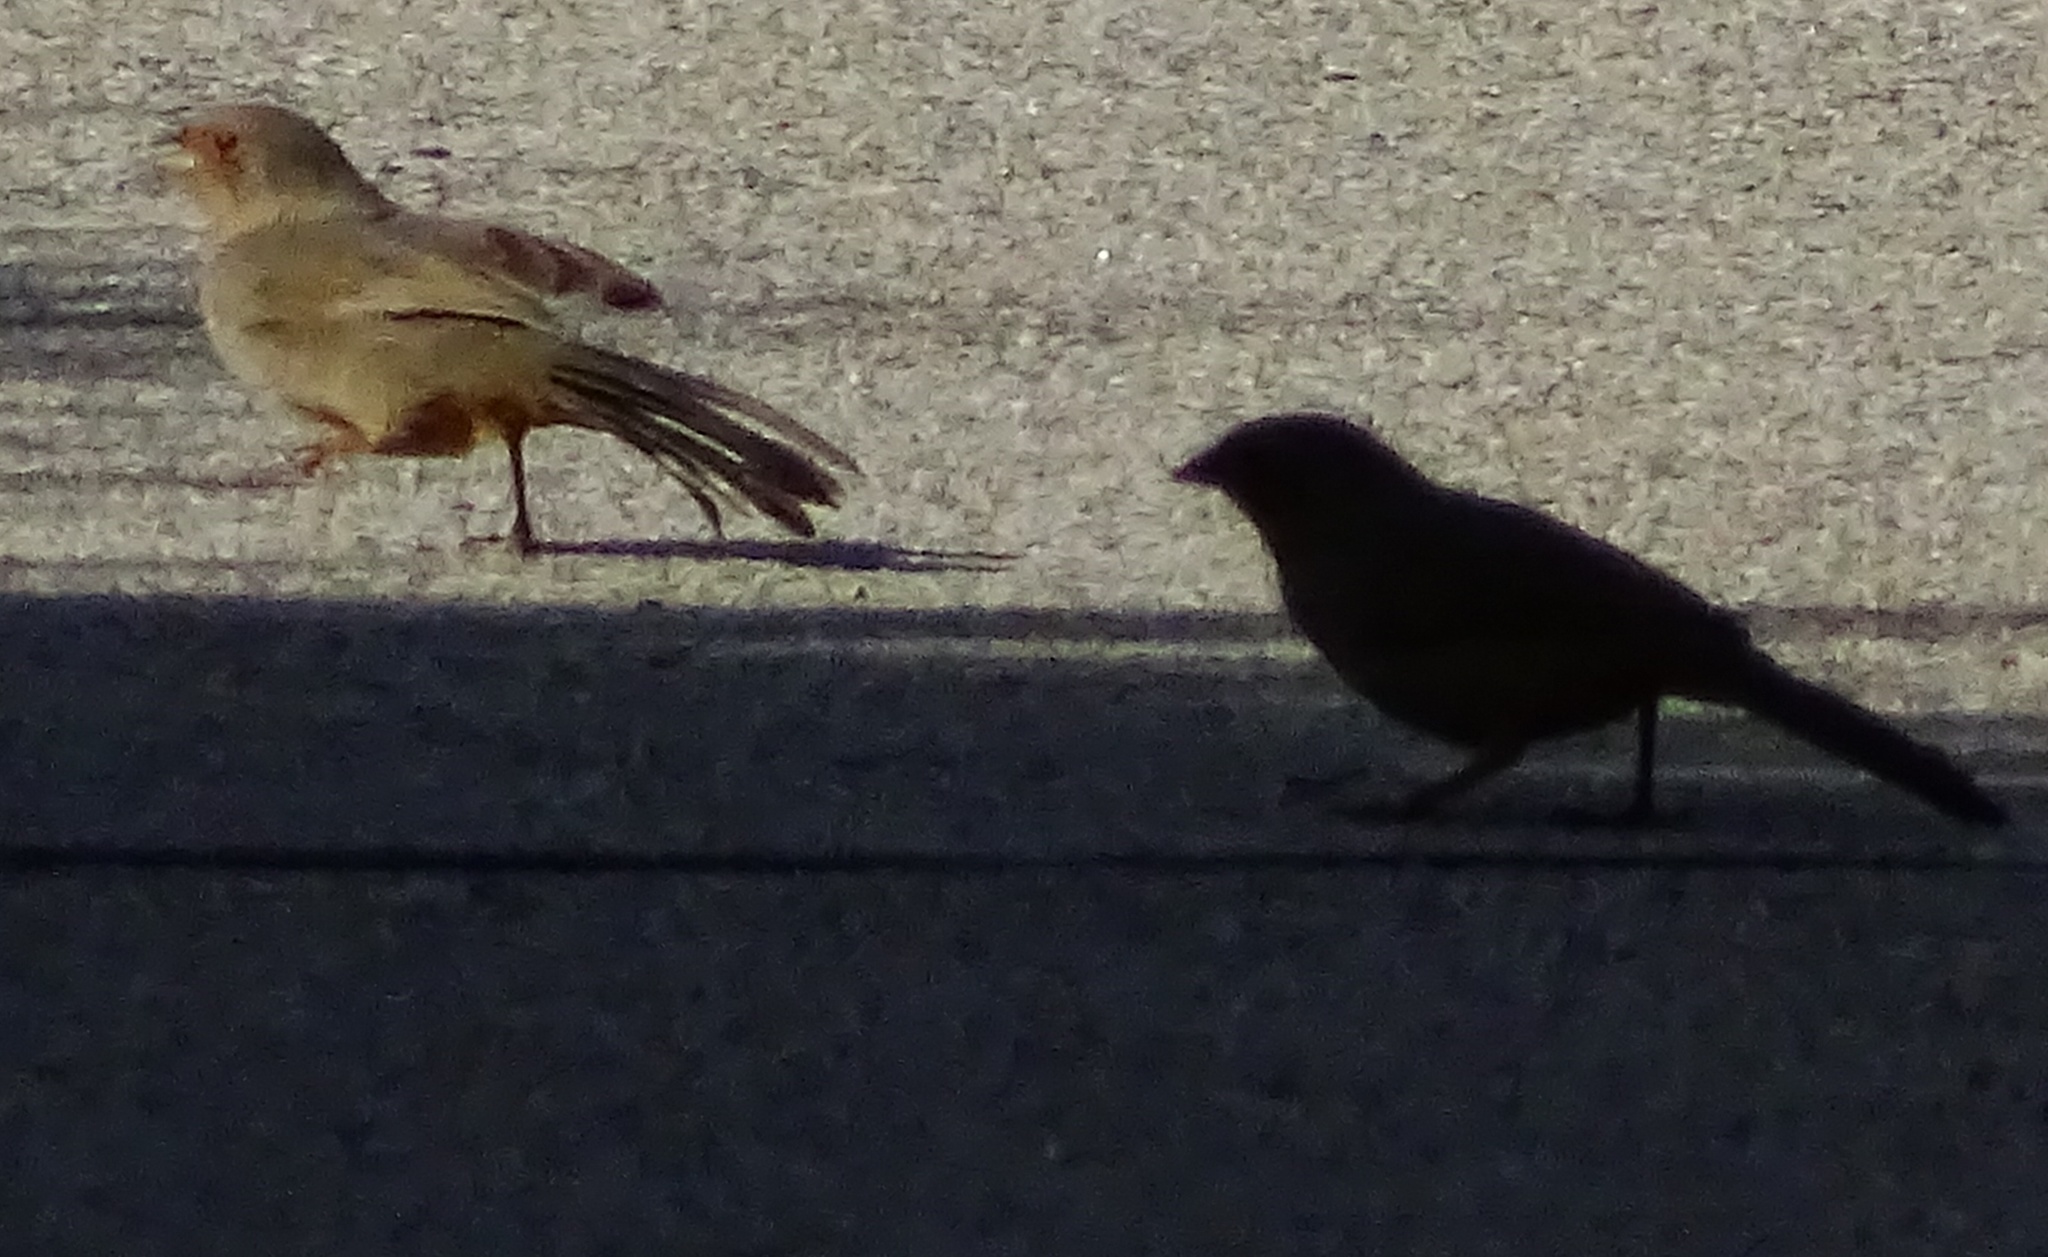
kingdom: Animalia
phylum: Chordata
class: Aves
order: Passeriformes
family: Passerellidae
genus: Melozone
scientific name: Melozone crissalis
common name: California towhee
